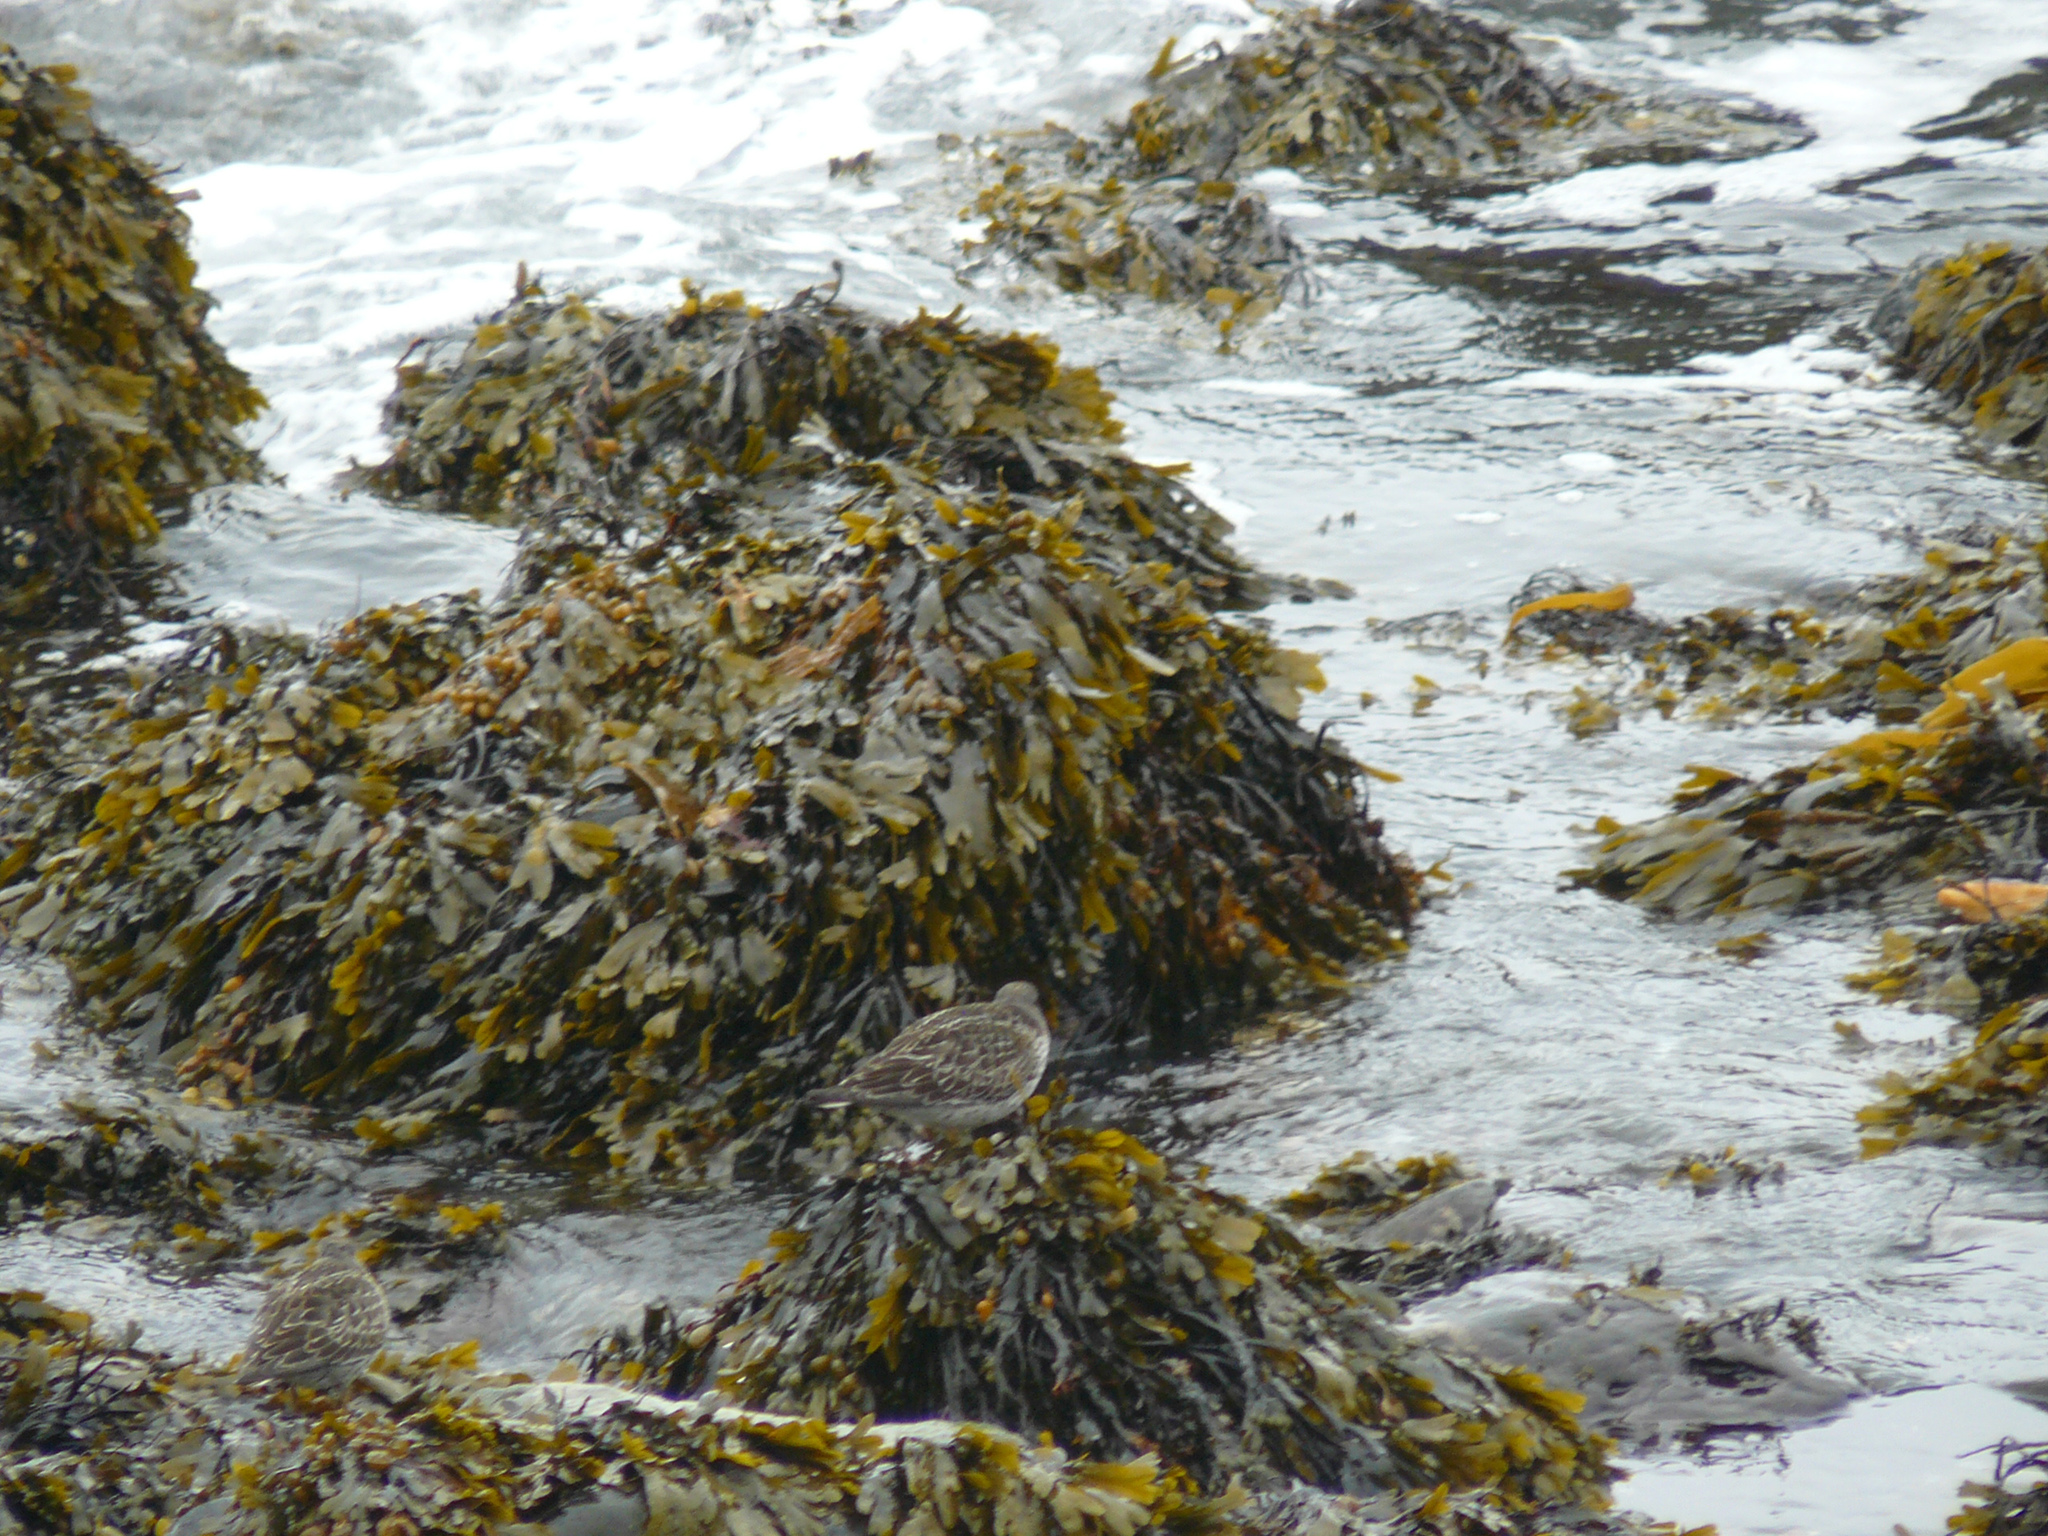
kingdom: Animalia
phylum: Chordata
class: Aves
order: Charadriiformes
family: Scolopacidae
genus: Calidris
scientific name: Calidris maritima
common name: Purple sandpiper
